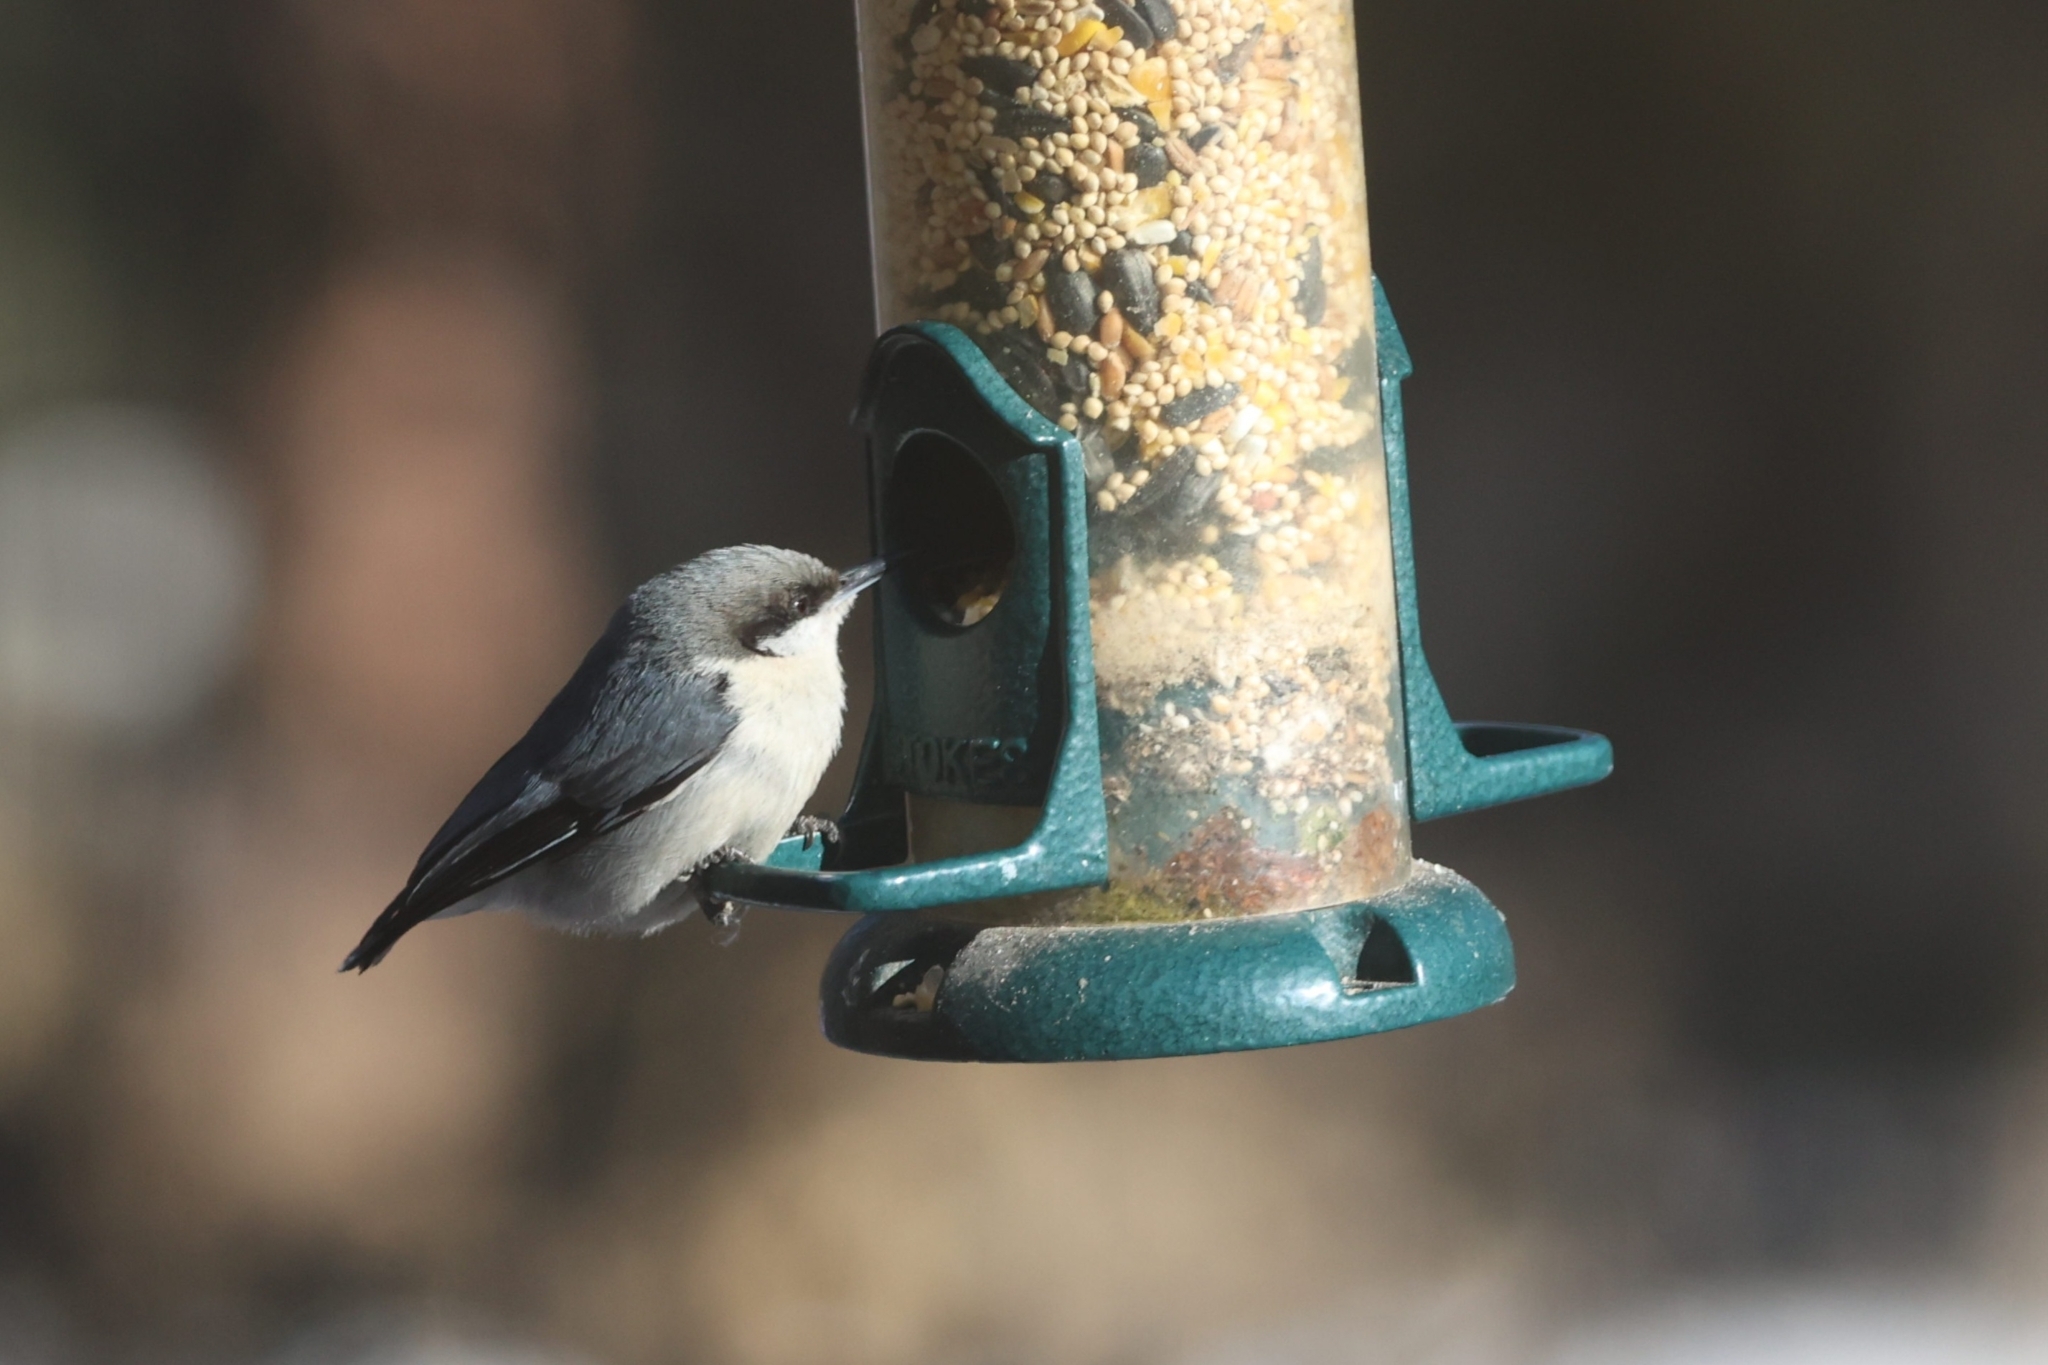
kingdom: Animalia
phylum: Chordata
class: Aves
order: Passeriformes
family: Sittidae
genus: Sitta
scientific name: Sitta pygmaea
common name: Pygmy nuthatch
